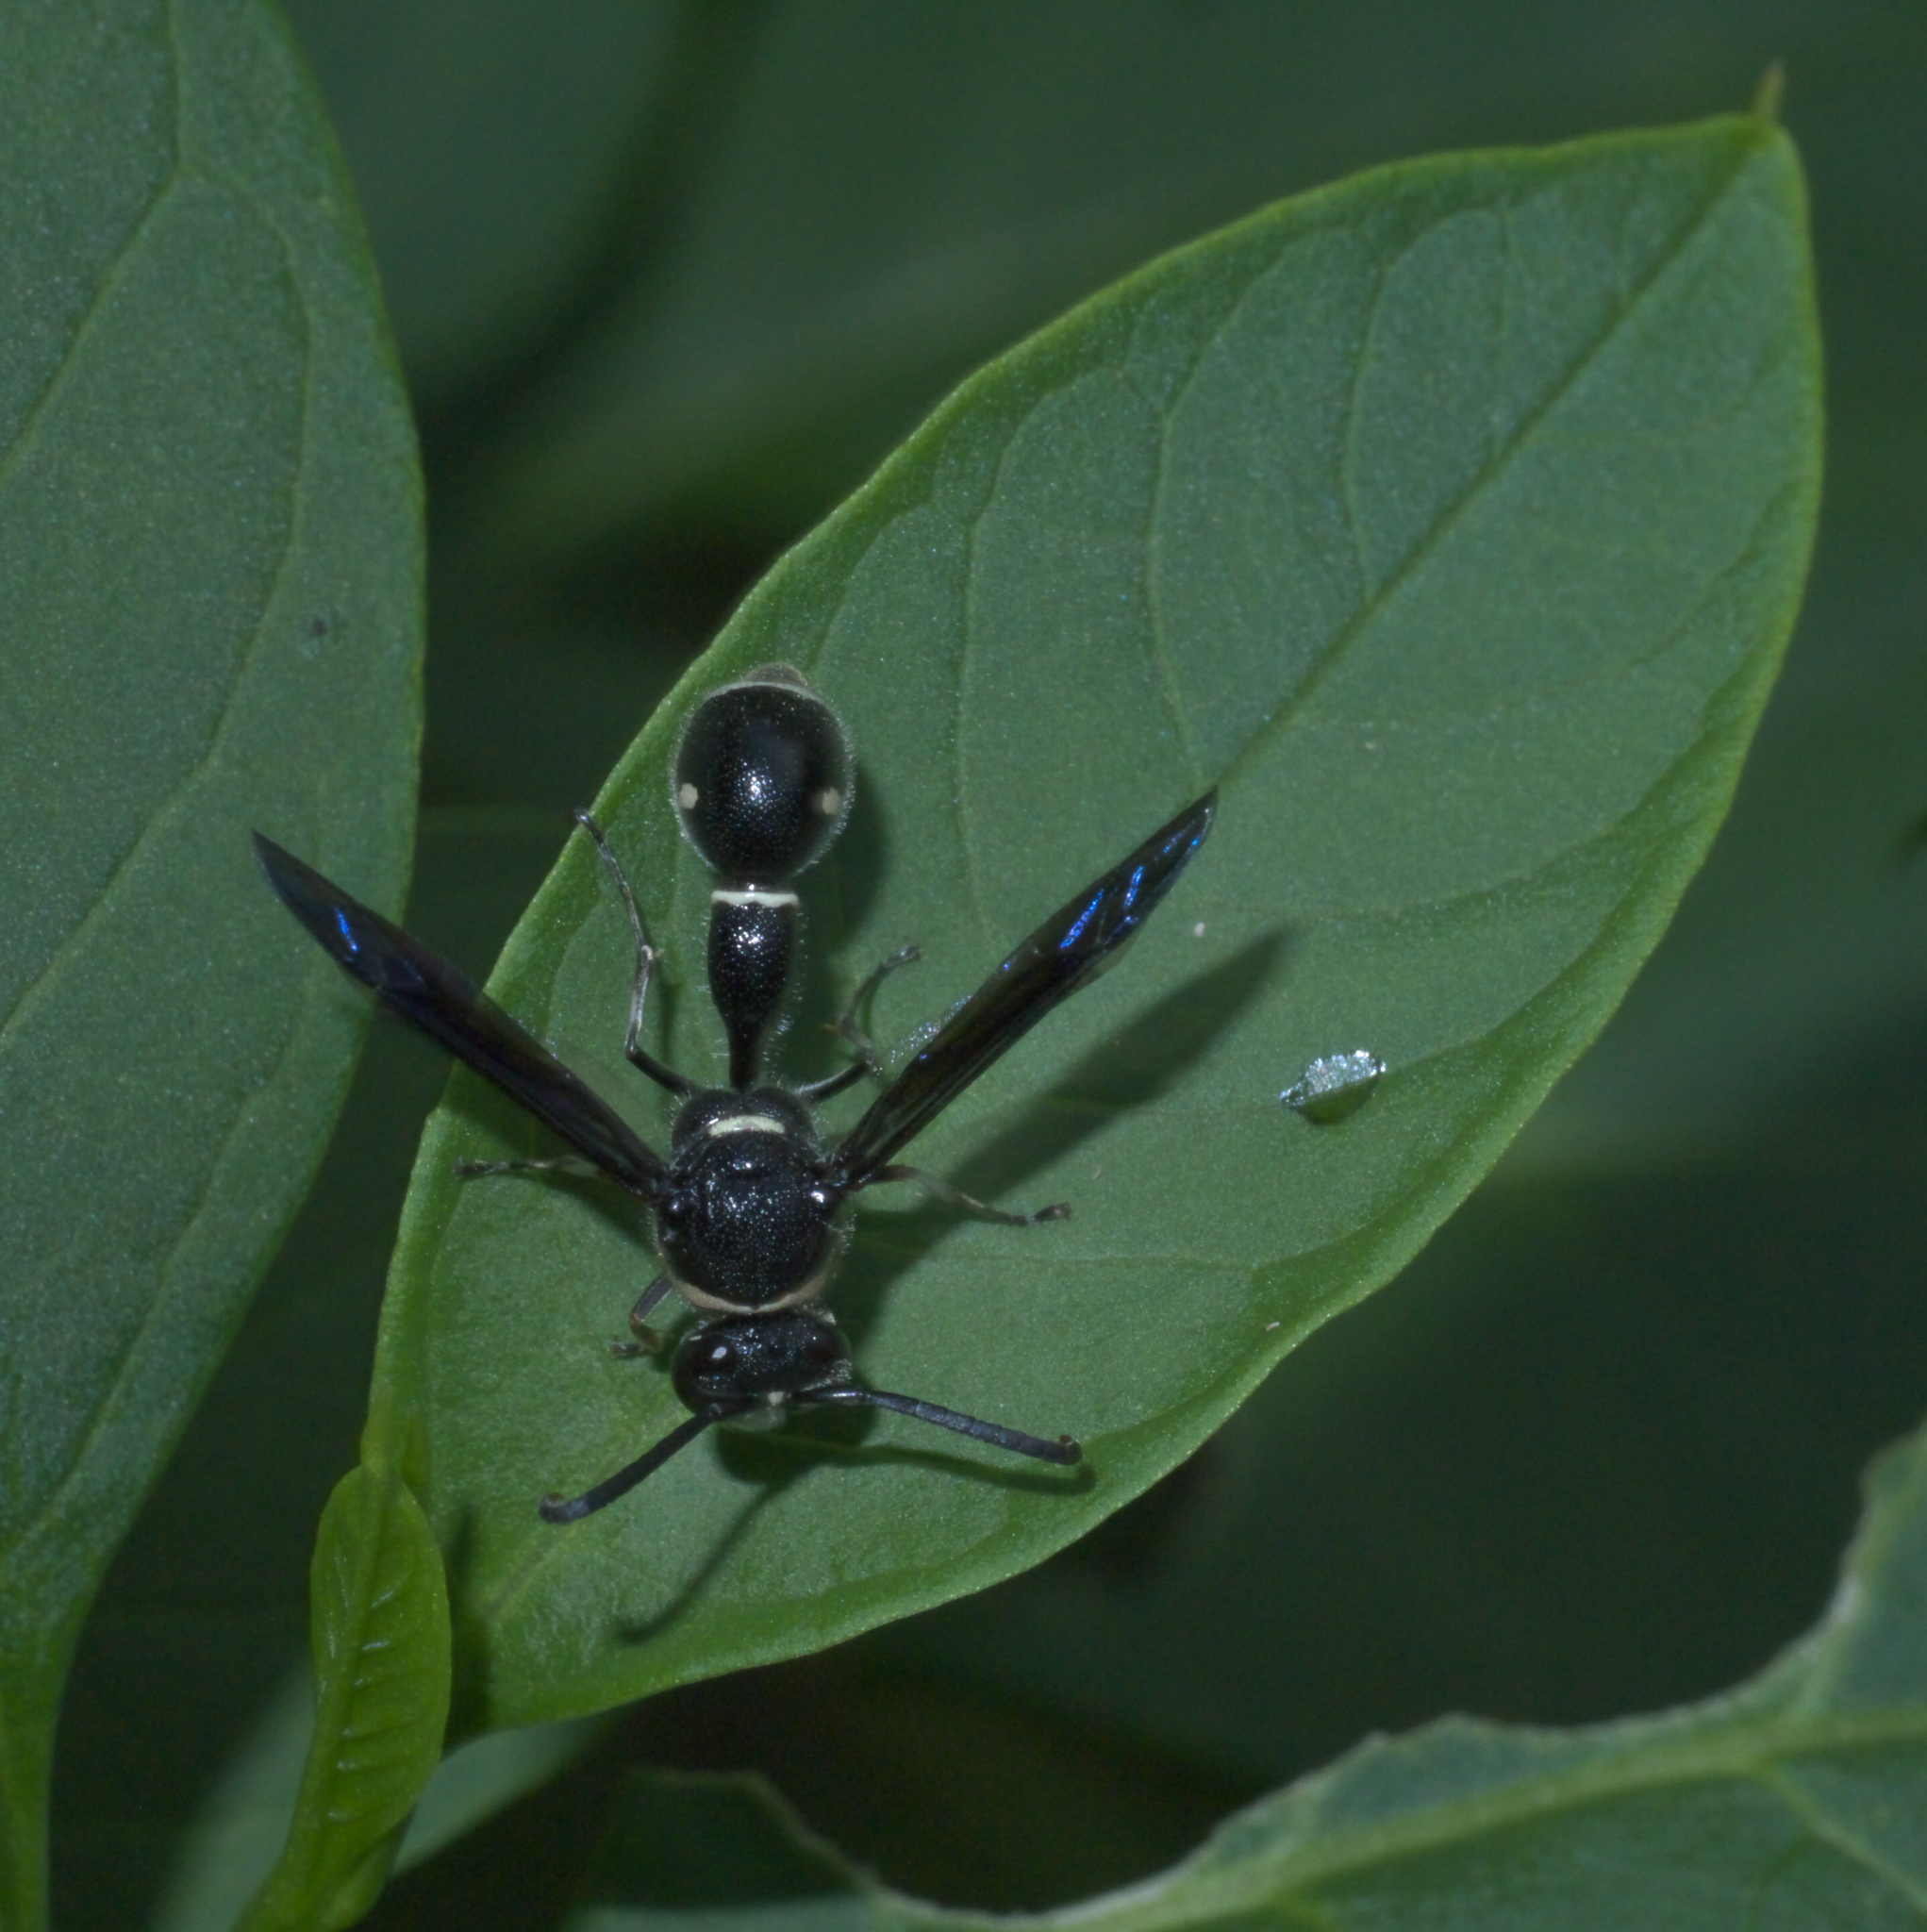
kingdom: Animalia
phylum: Arthropoda
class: Insecta
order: Hymenoptera
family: Vespidae
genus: Eumenes
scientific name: Eumenes fraternus
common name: Fraternal potter wasp
